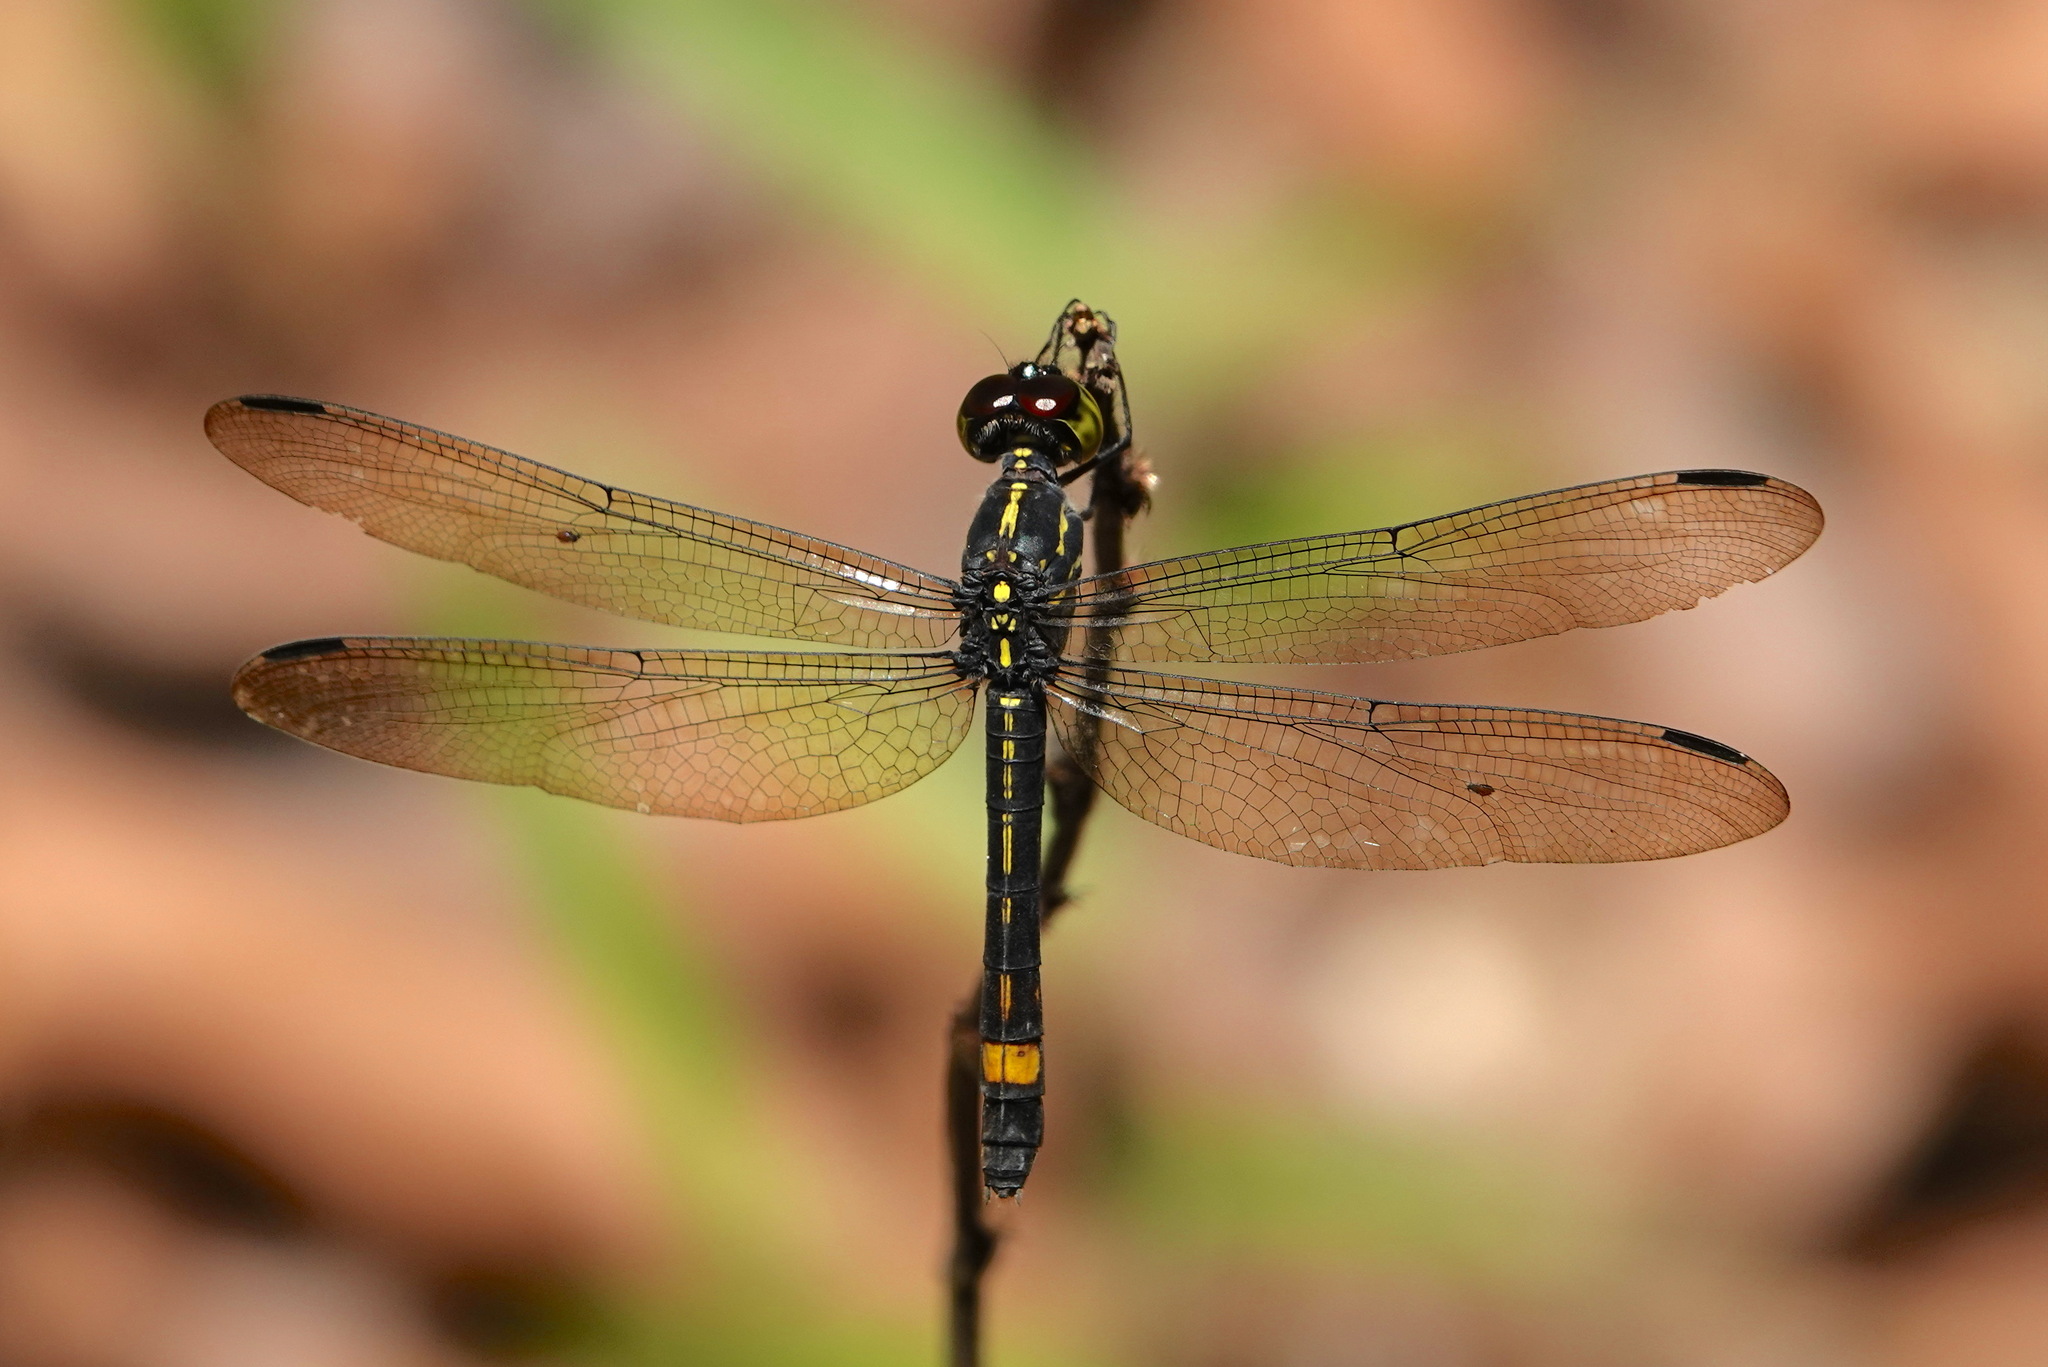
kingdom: Animalia
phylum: Arthropoda
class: Insecta
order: Odonata
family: Libellulidae
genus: Agrionoptera
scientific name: Agrionoptera sexlineata
